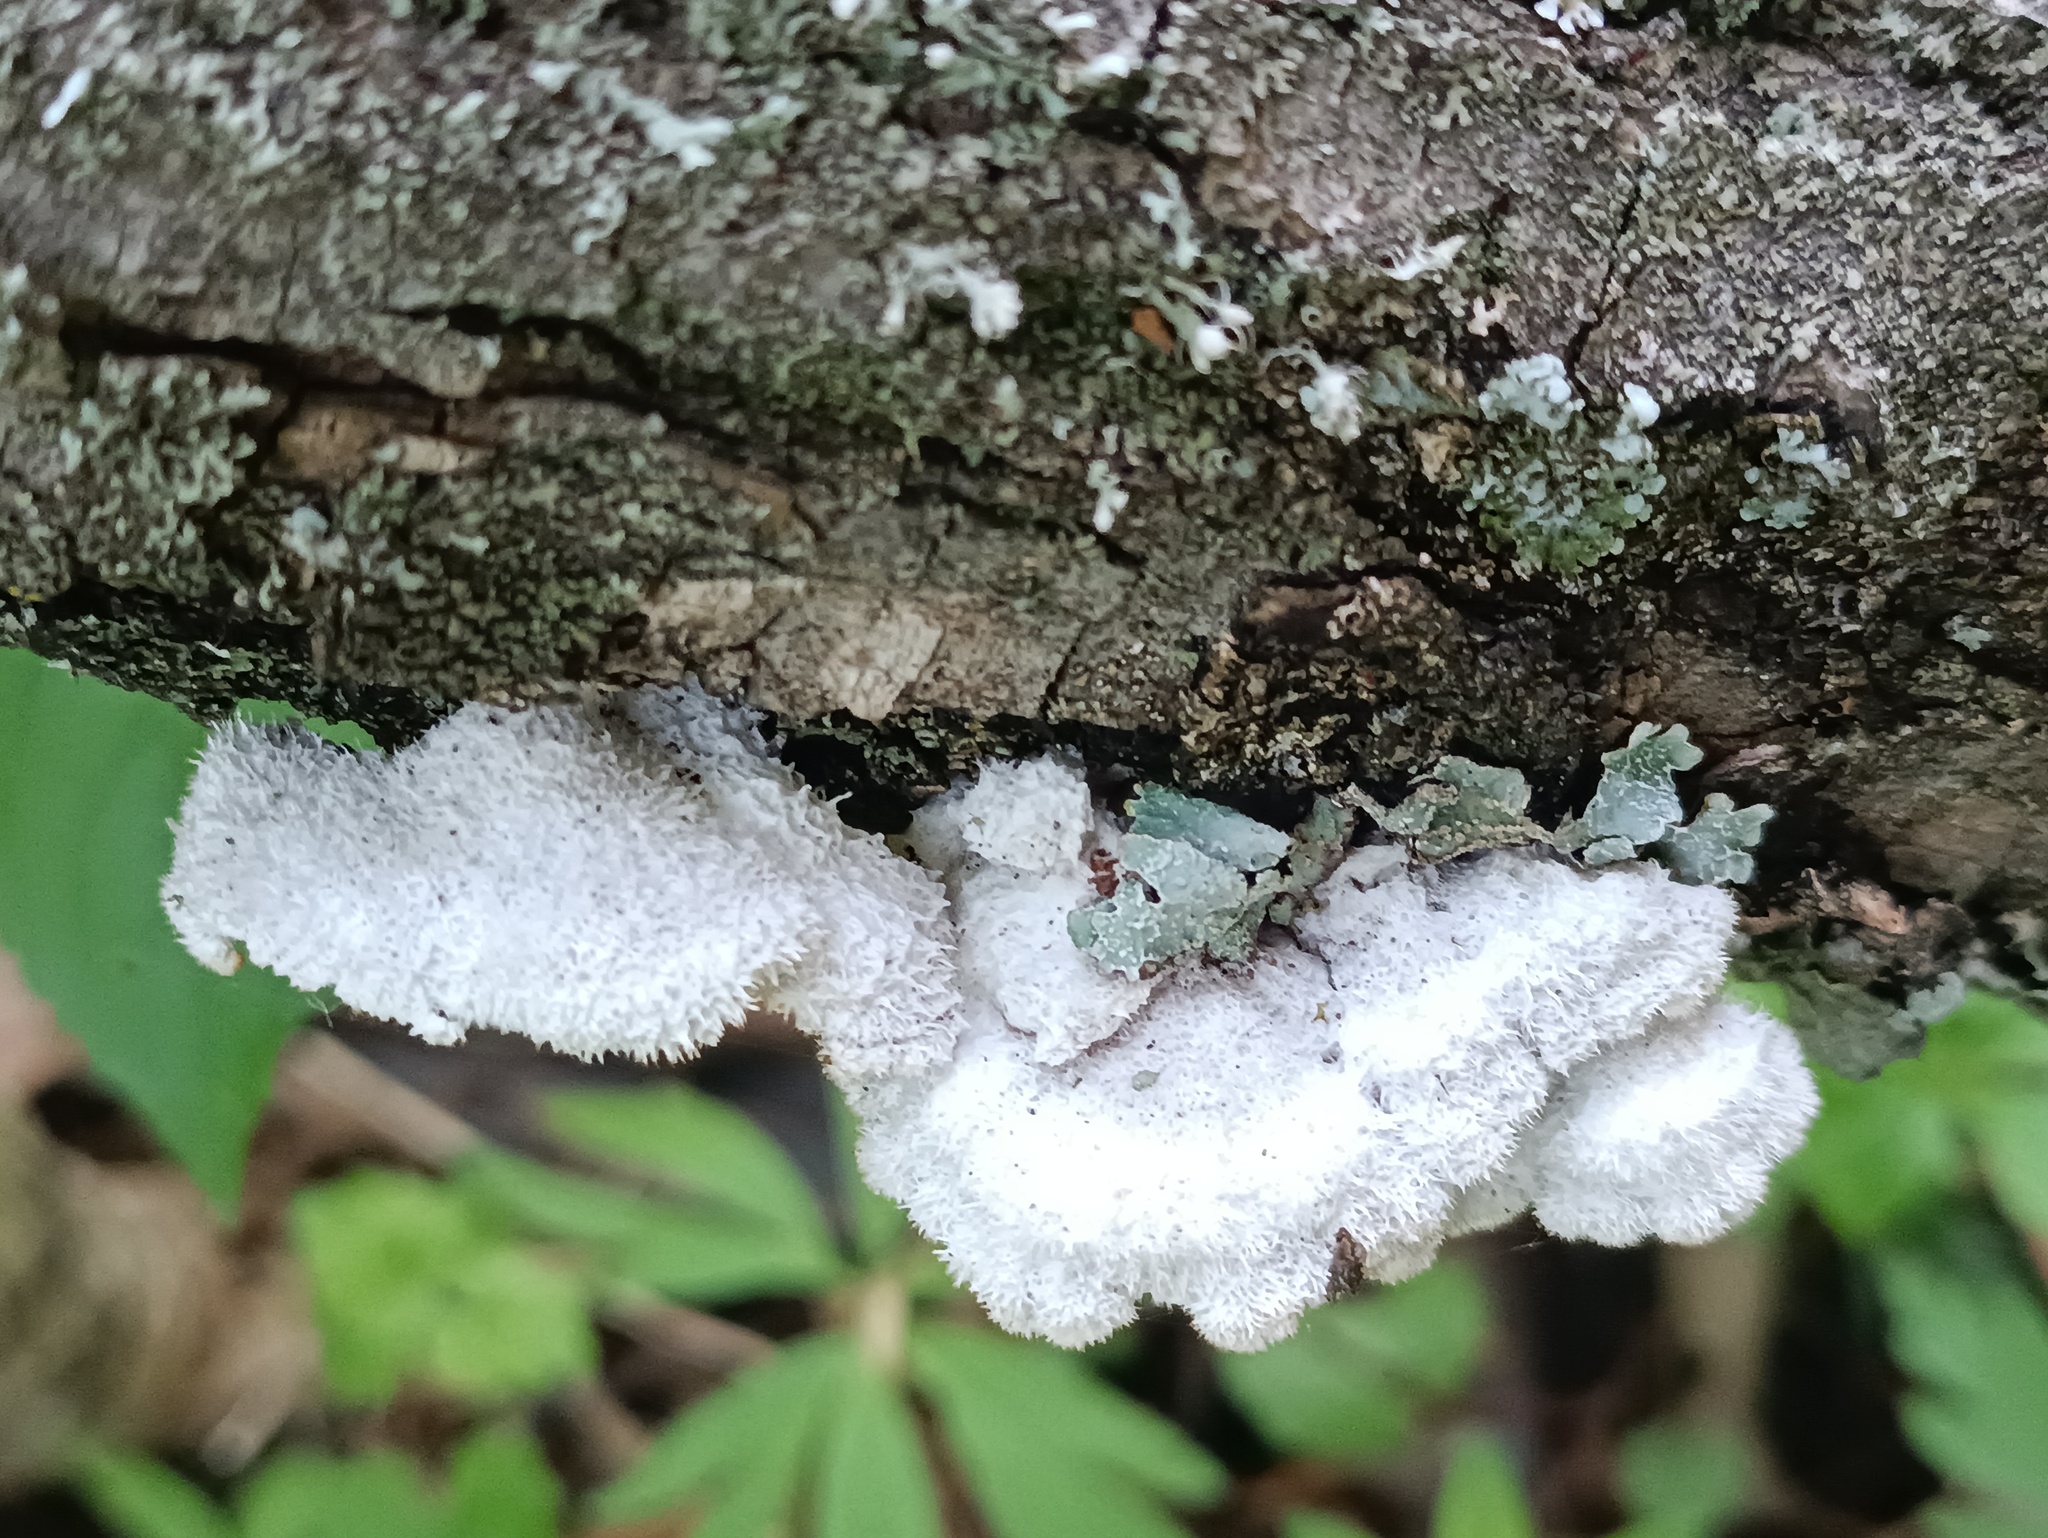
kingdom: Fungi
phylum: Basidiomycota
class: Agaricomycetes
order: Agaricales
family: Schizophyllaceae
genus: Schizophyllum
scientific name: Schizophyllum commune
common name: Common porecrust
